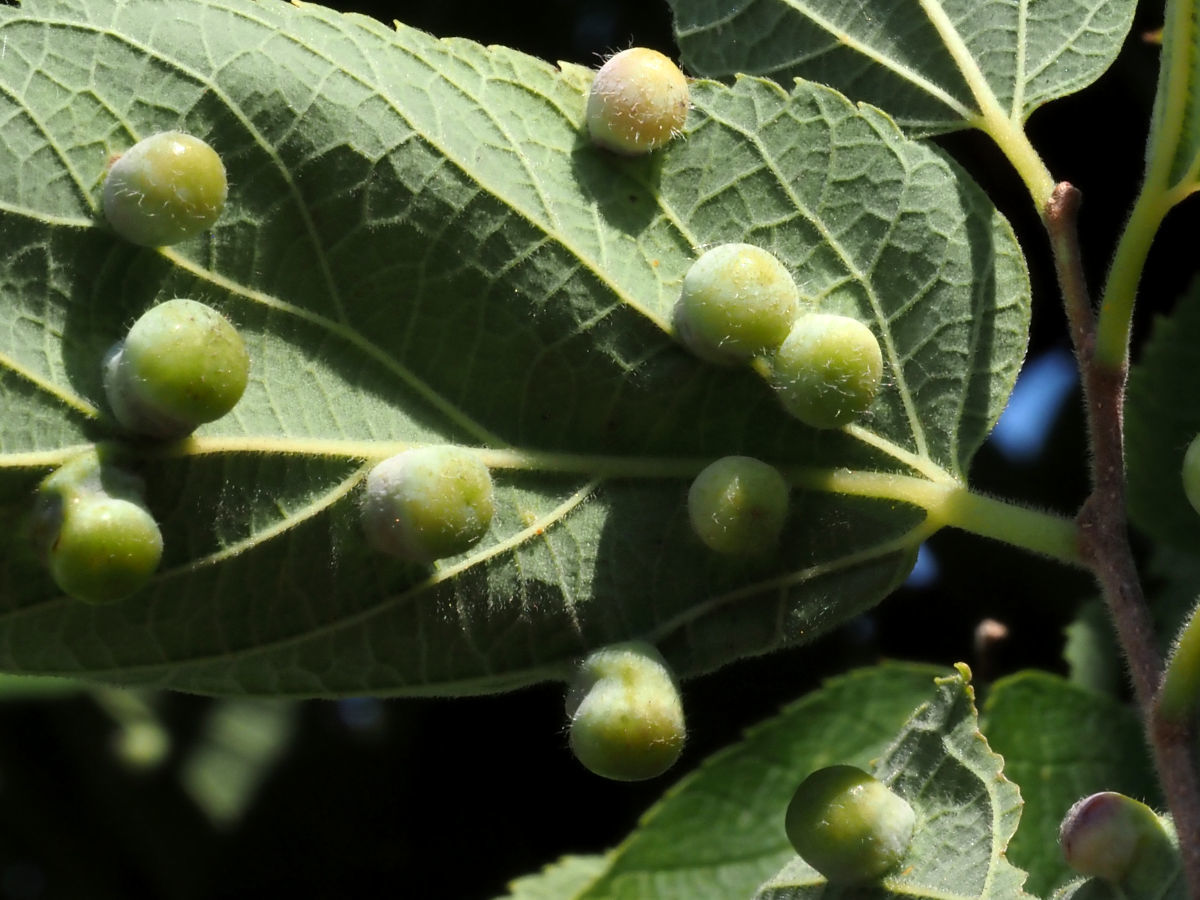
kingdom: Animalia
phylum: Arthropoda
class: Insecta
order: Hemiptera
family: Aphalaridae
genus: Pachypsylla
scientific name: Pachypsylla celtidismamma
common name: Hackberry nipplegall psyllid
